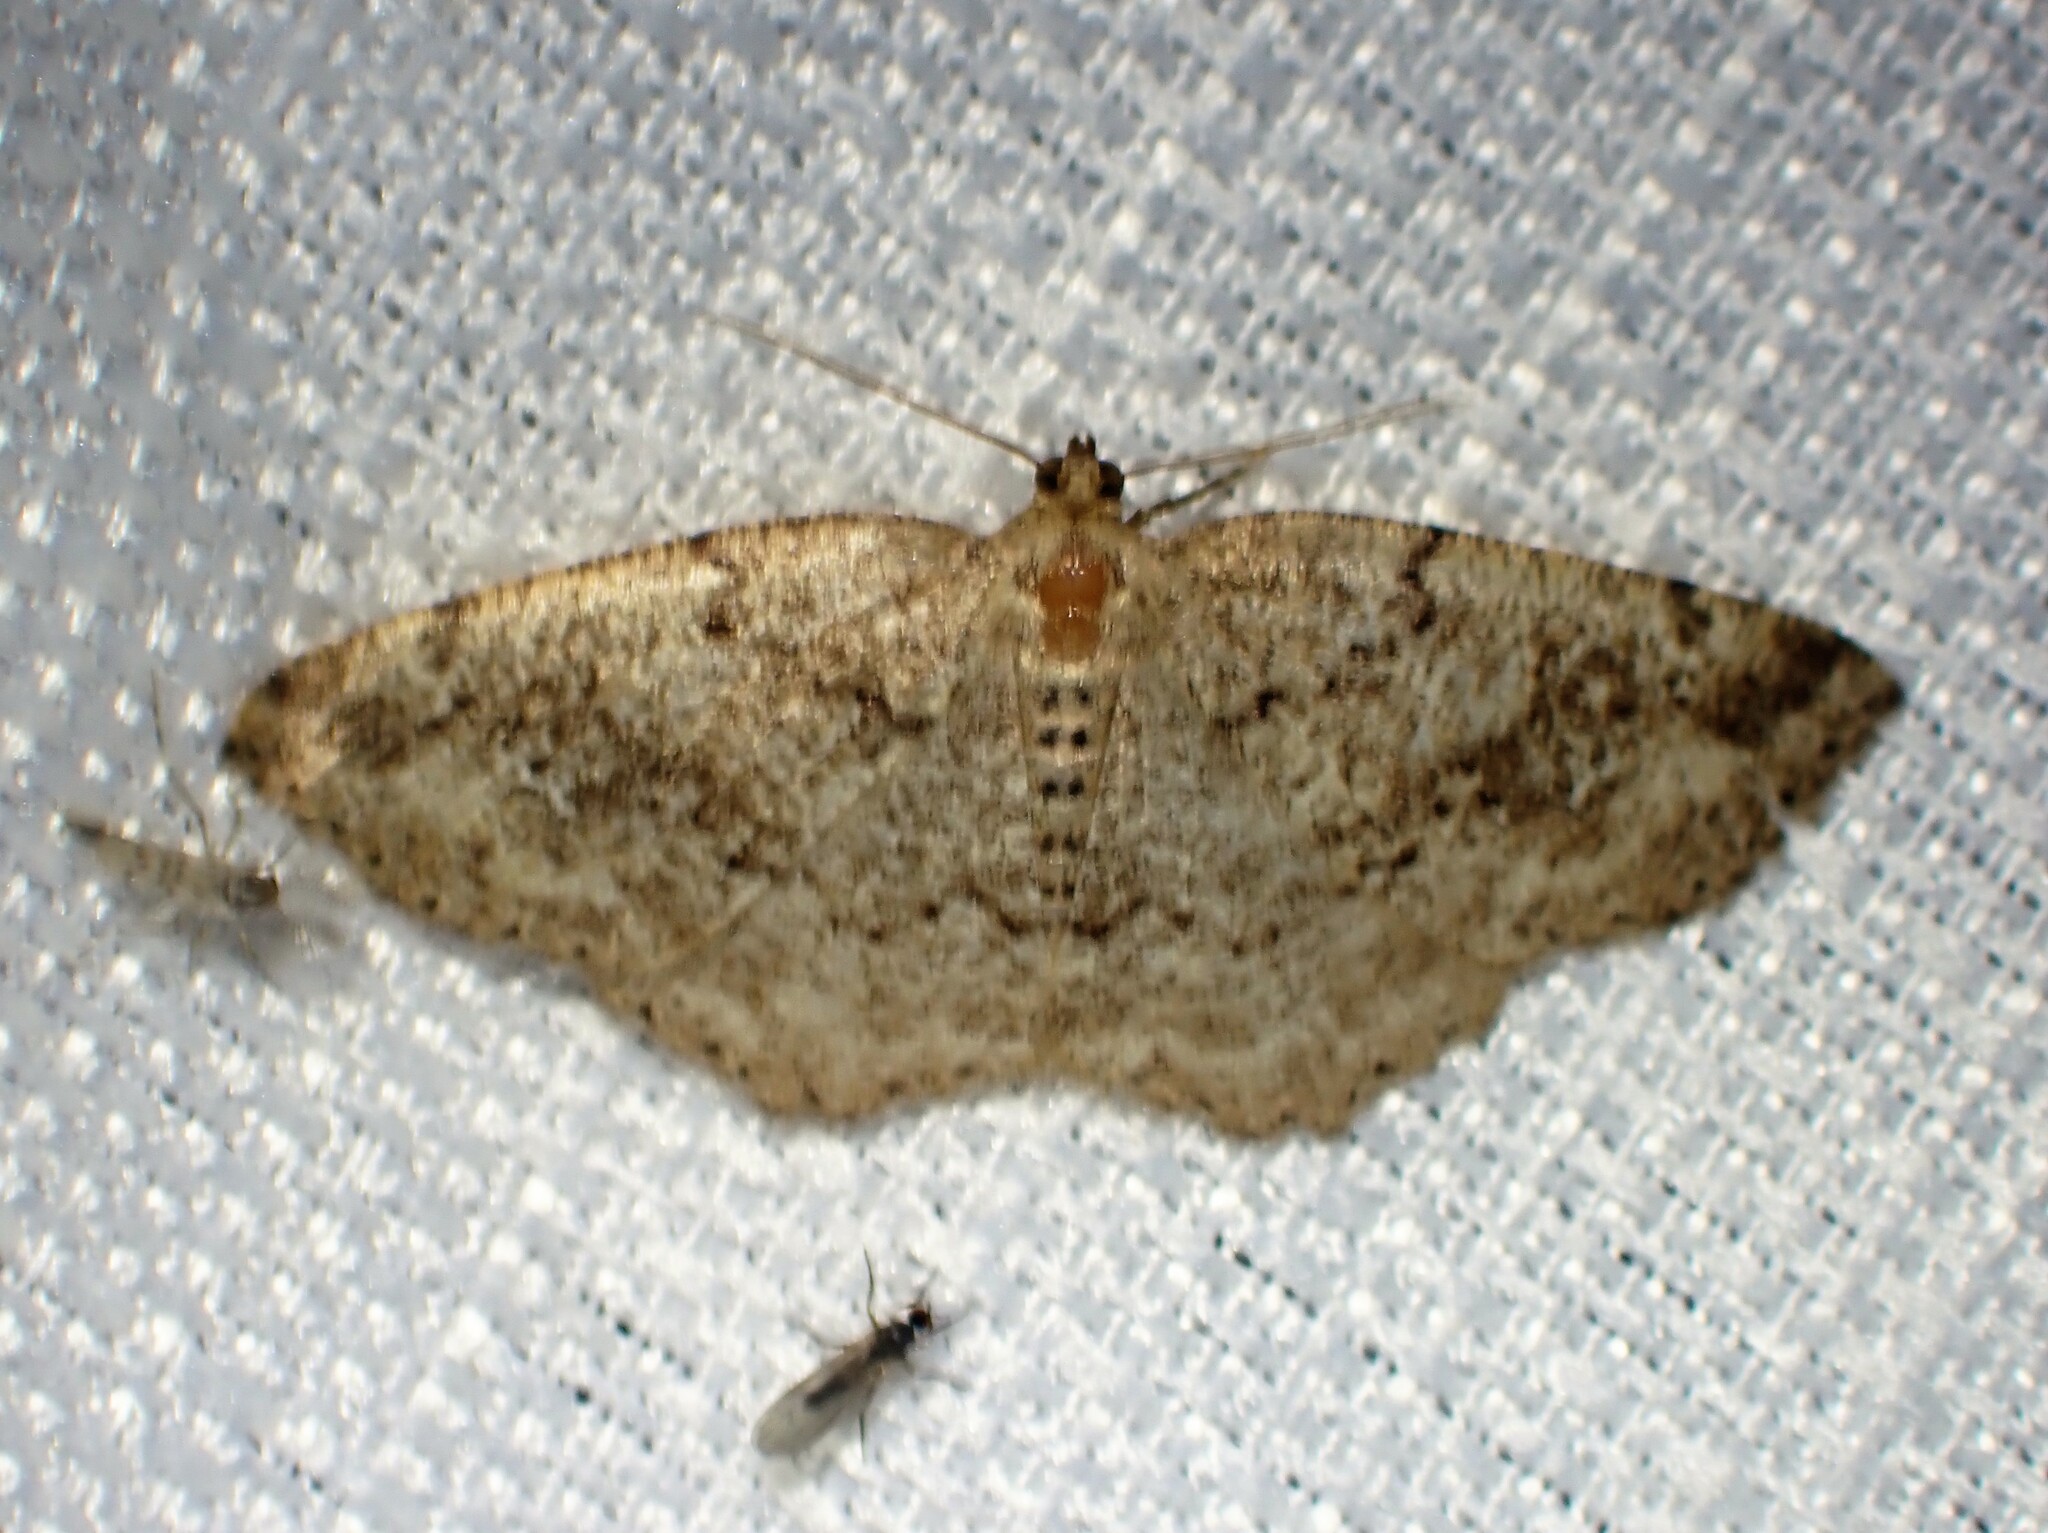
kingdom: Animalia
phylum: Arthropoda
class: Insecta
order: Lepidoptera
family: Geometridae
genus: Homochlodes
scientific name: Homochlodes fritillaria
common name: Pale homochlodes
